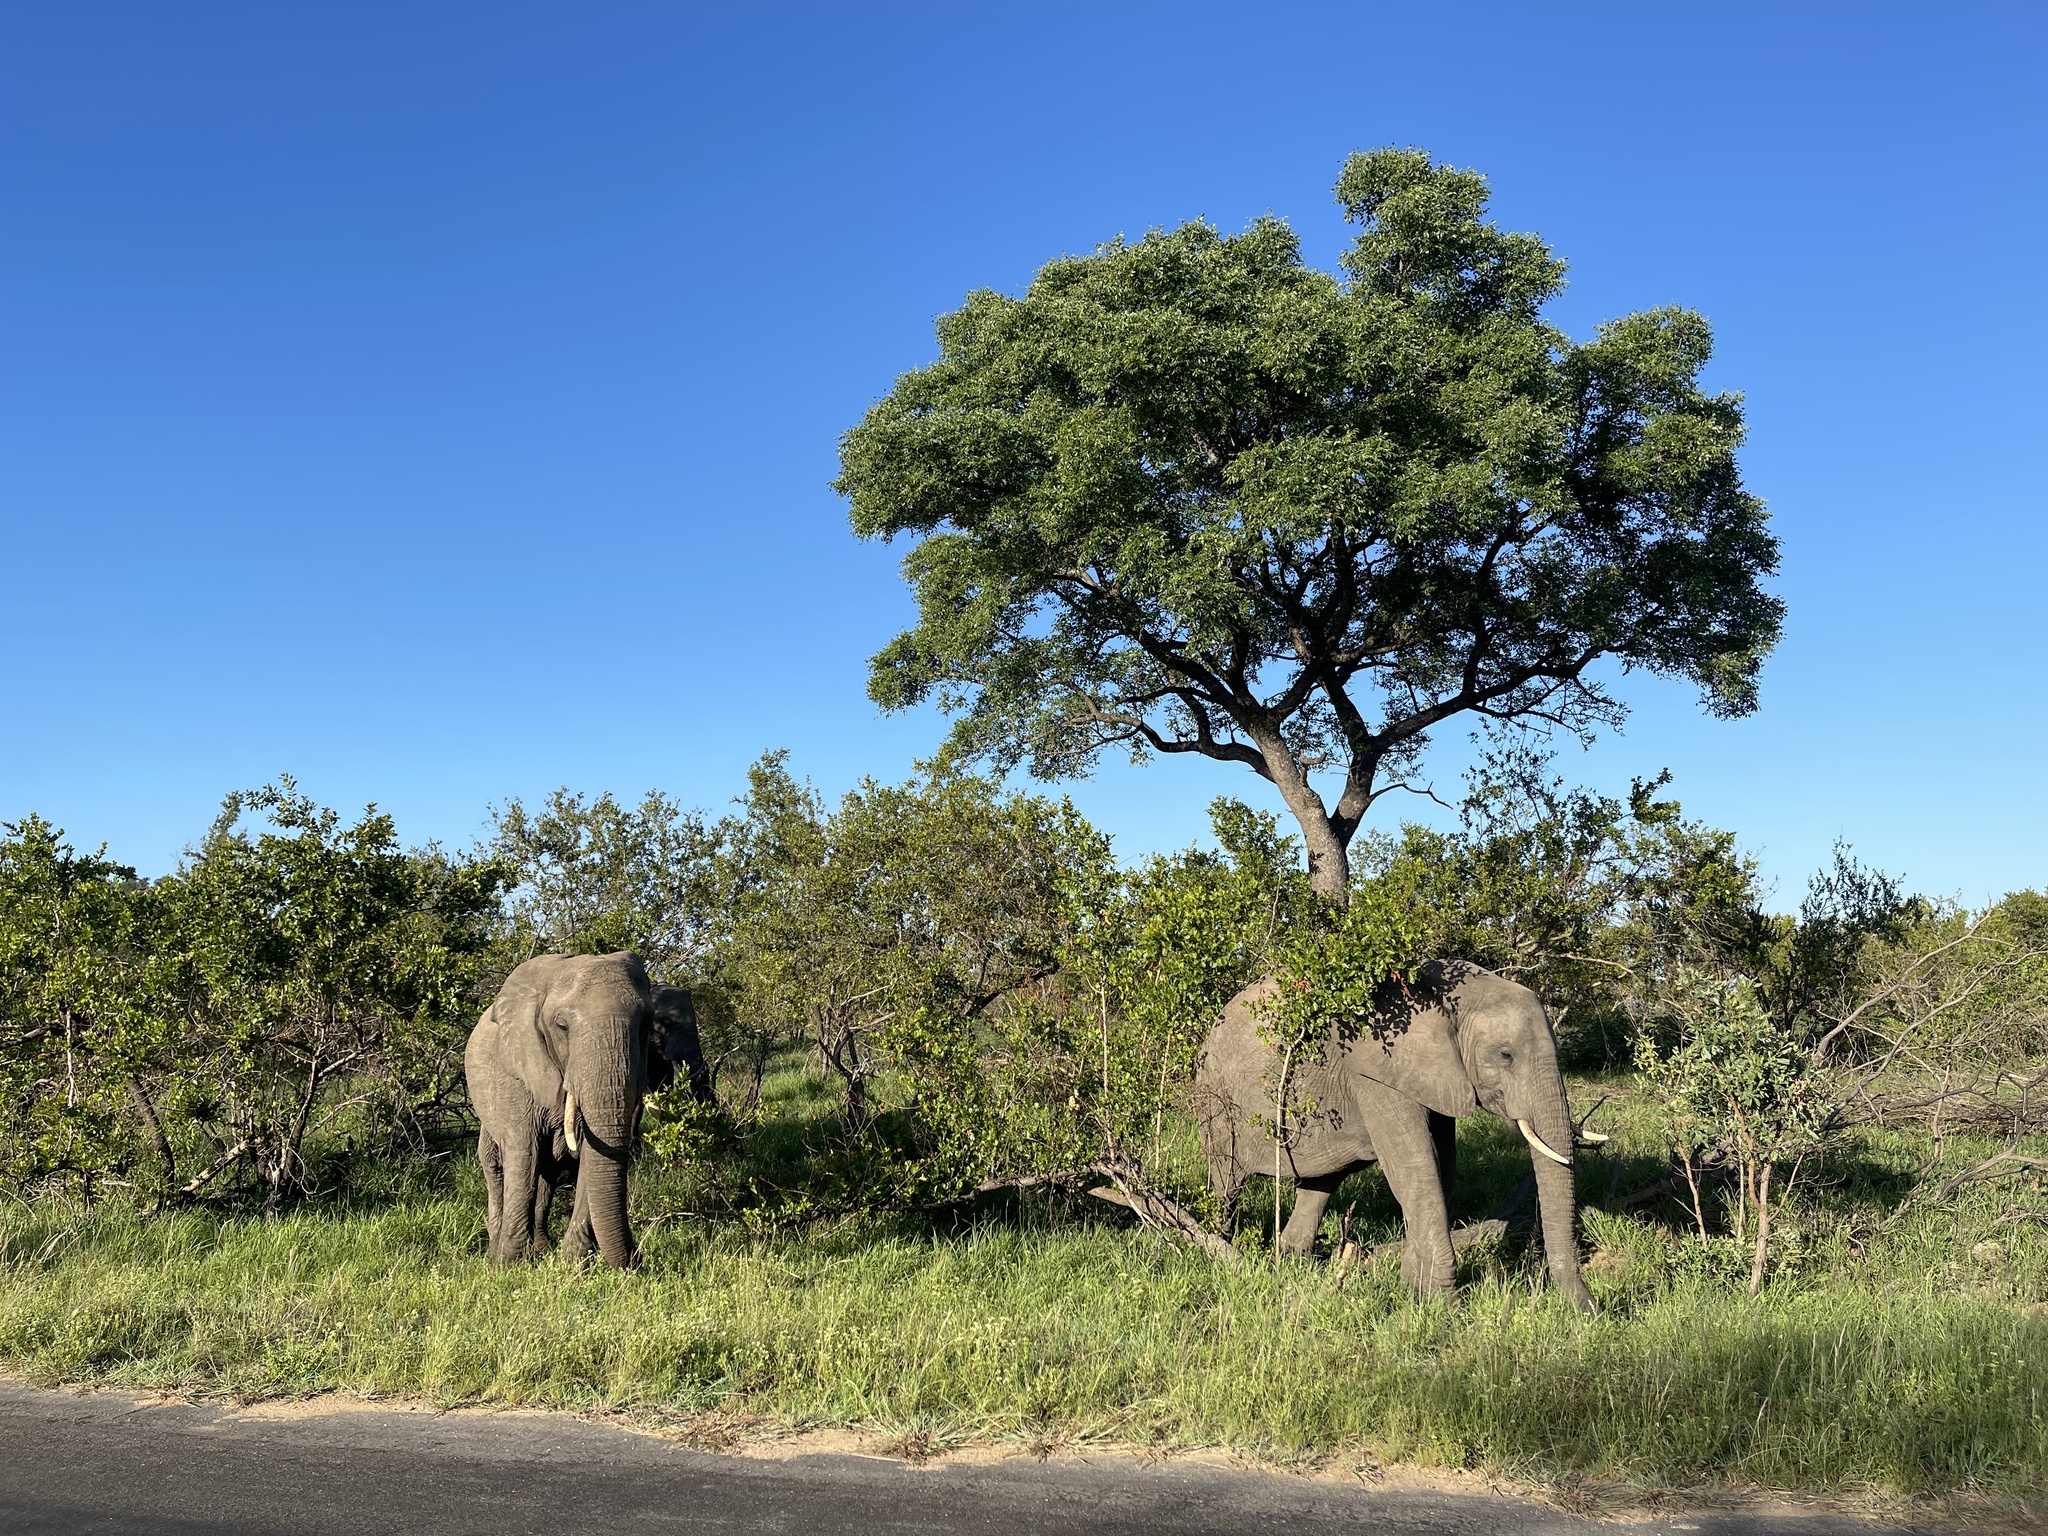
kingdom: Animalia
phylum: Chordata
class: Mammalia
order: Proboscidea
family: Elephantidae
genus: Loxodonta
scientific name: Loxodonta africana
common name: African elephant
